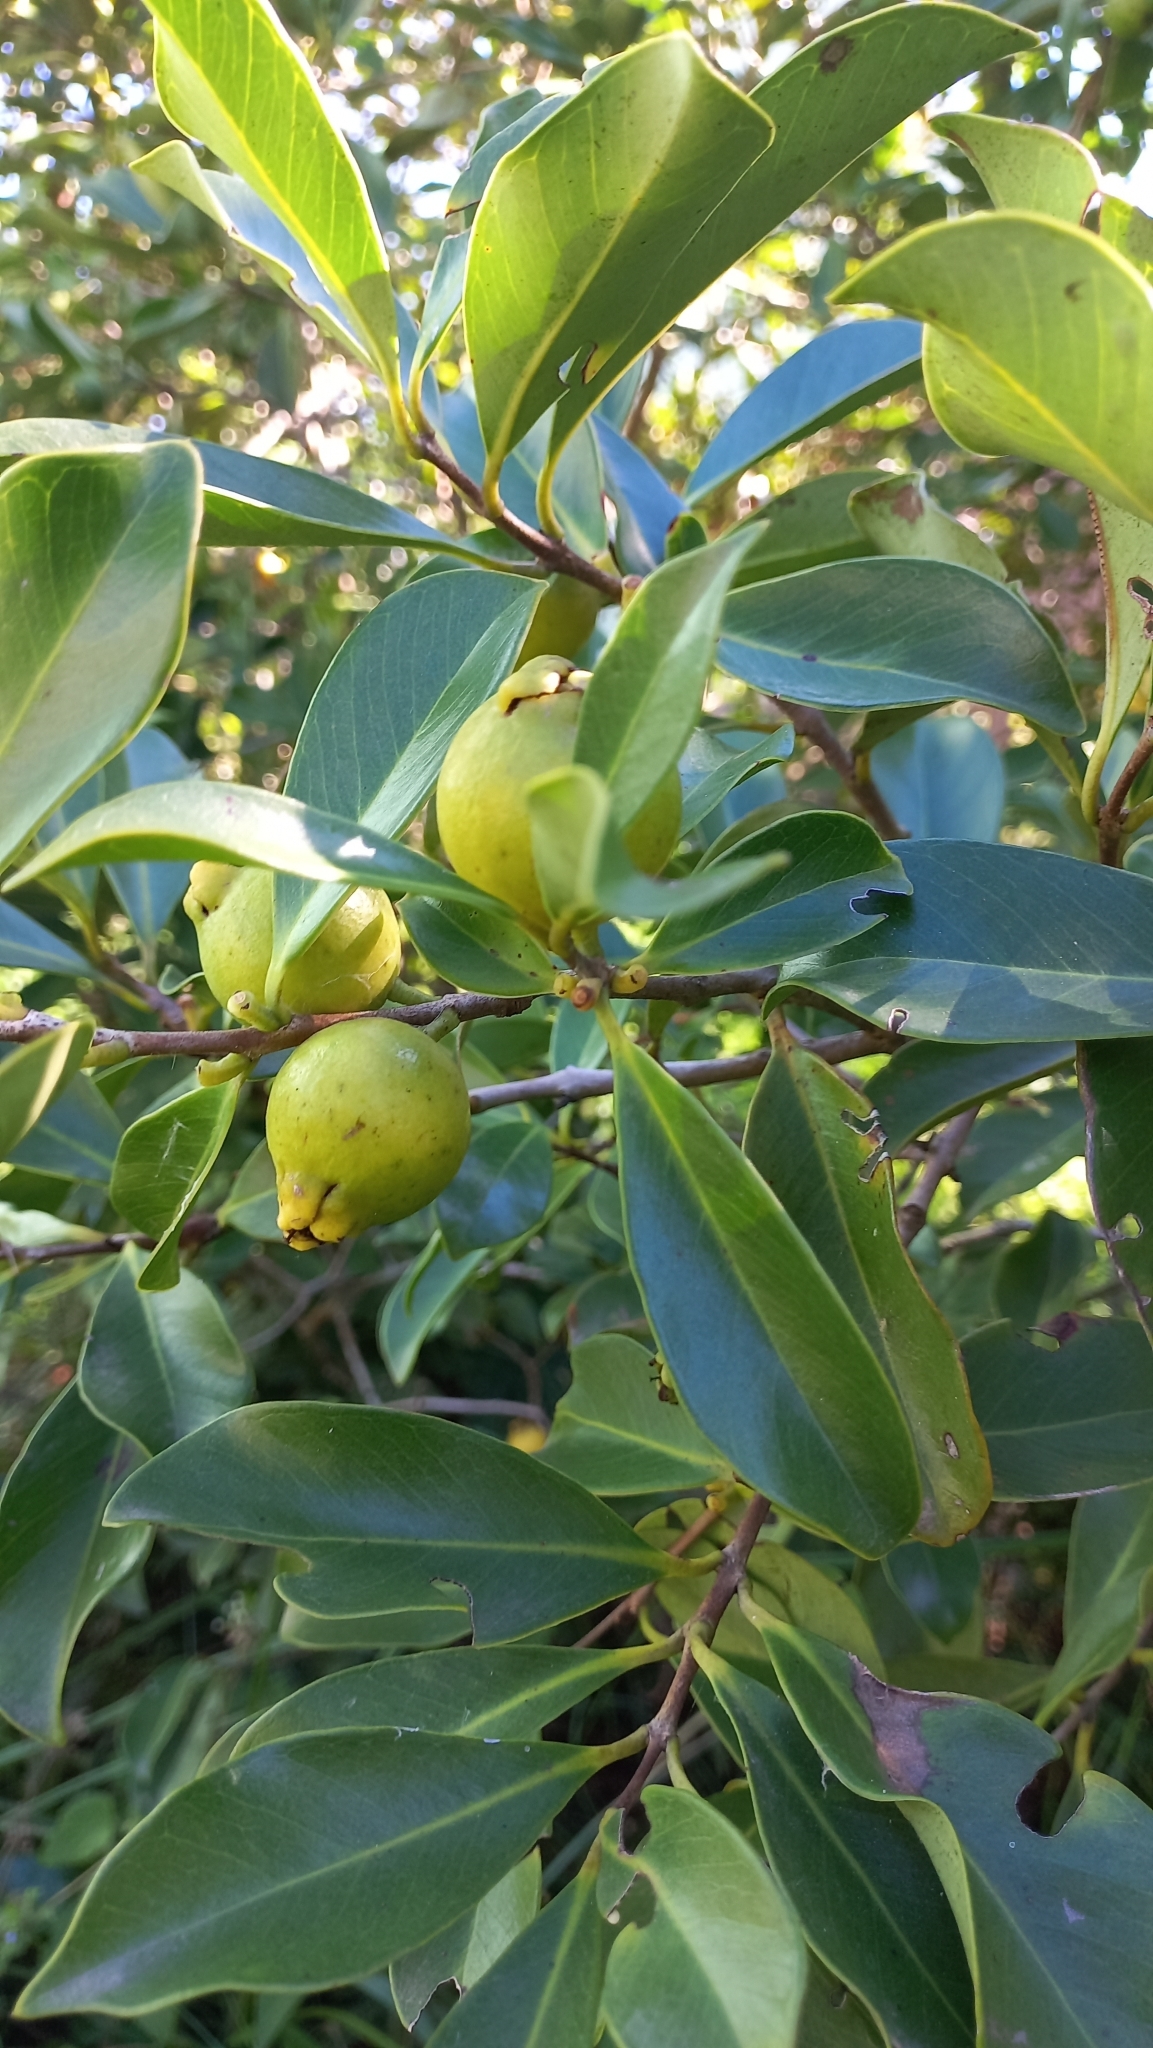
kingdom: Plantae
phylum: Tracheophyta
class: Magnoliopsida
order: Myrtales
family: Myrtaceae
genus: Psidium
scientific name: Psidium cattleianum
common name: Strawberry guava
